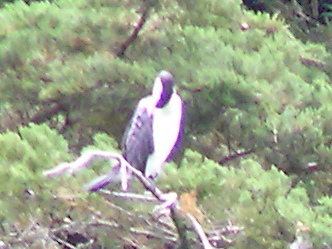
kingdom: Animalia
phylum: Chordata
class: Aves
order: Suliformes
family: Phalacrocoracidae
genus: Phalacrocorax
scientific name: Phalacrocorax varius
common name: Pied cormorant
